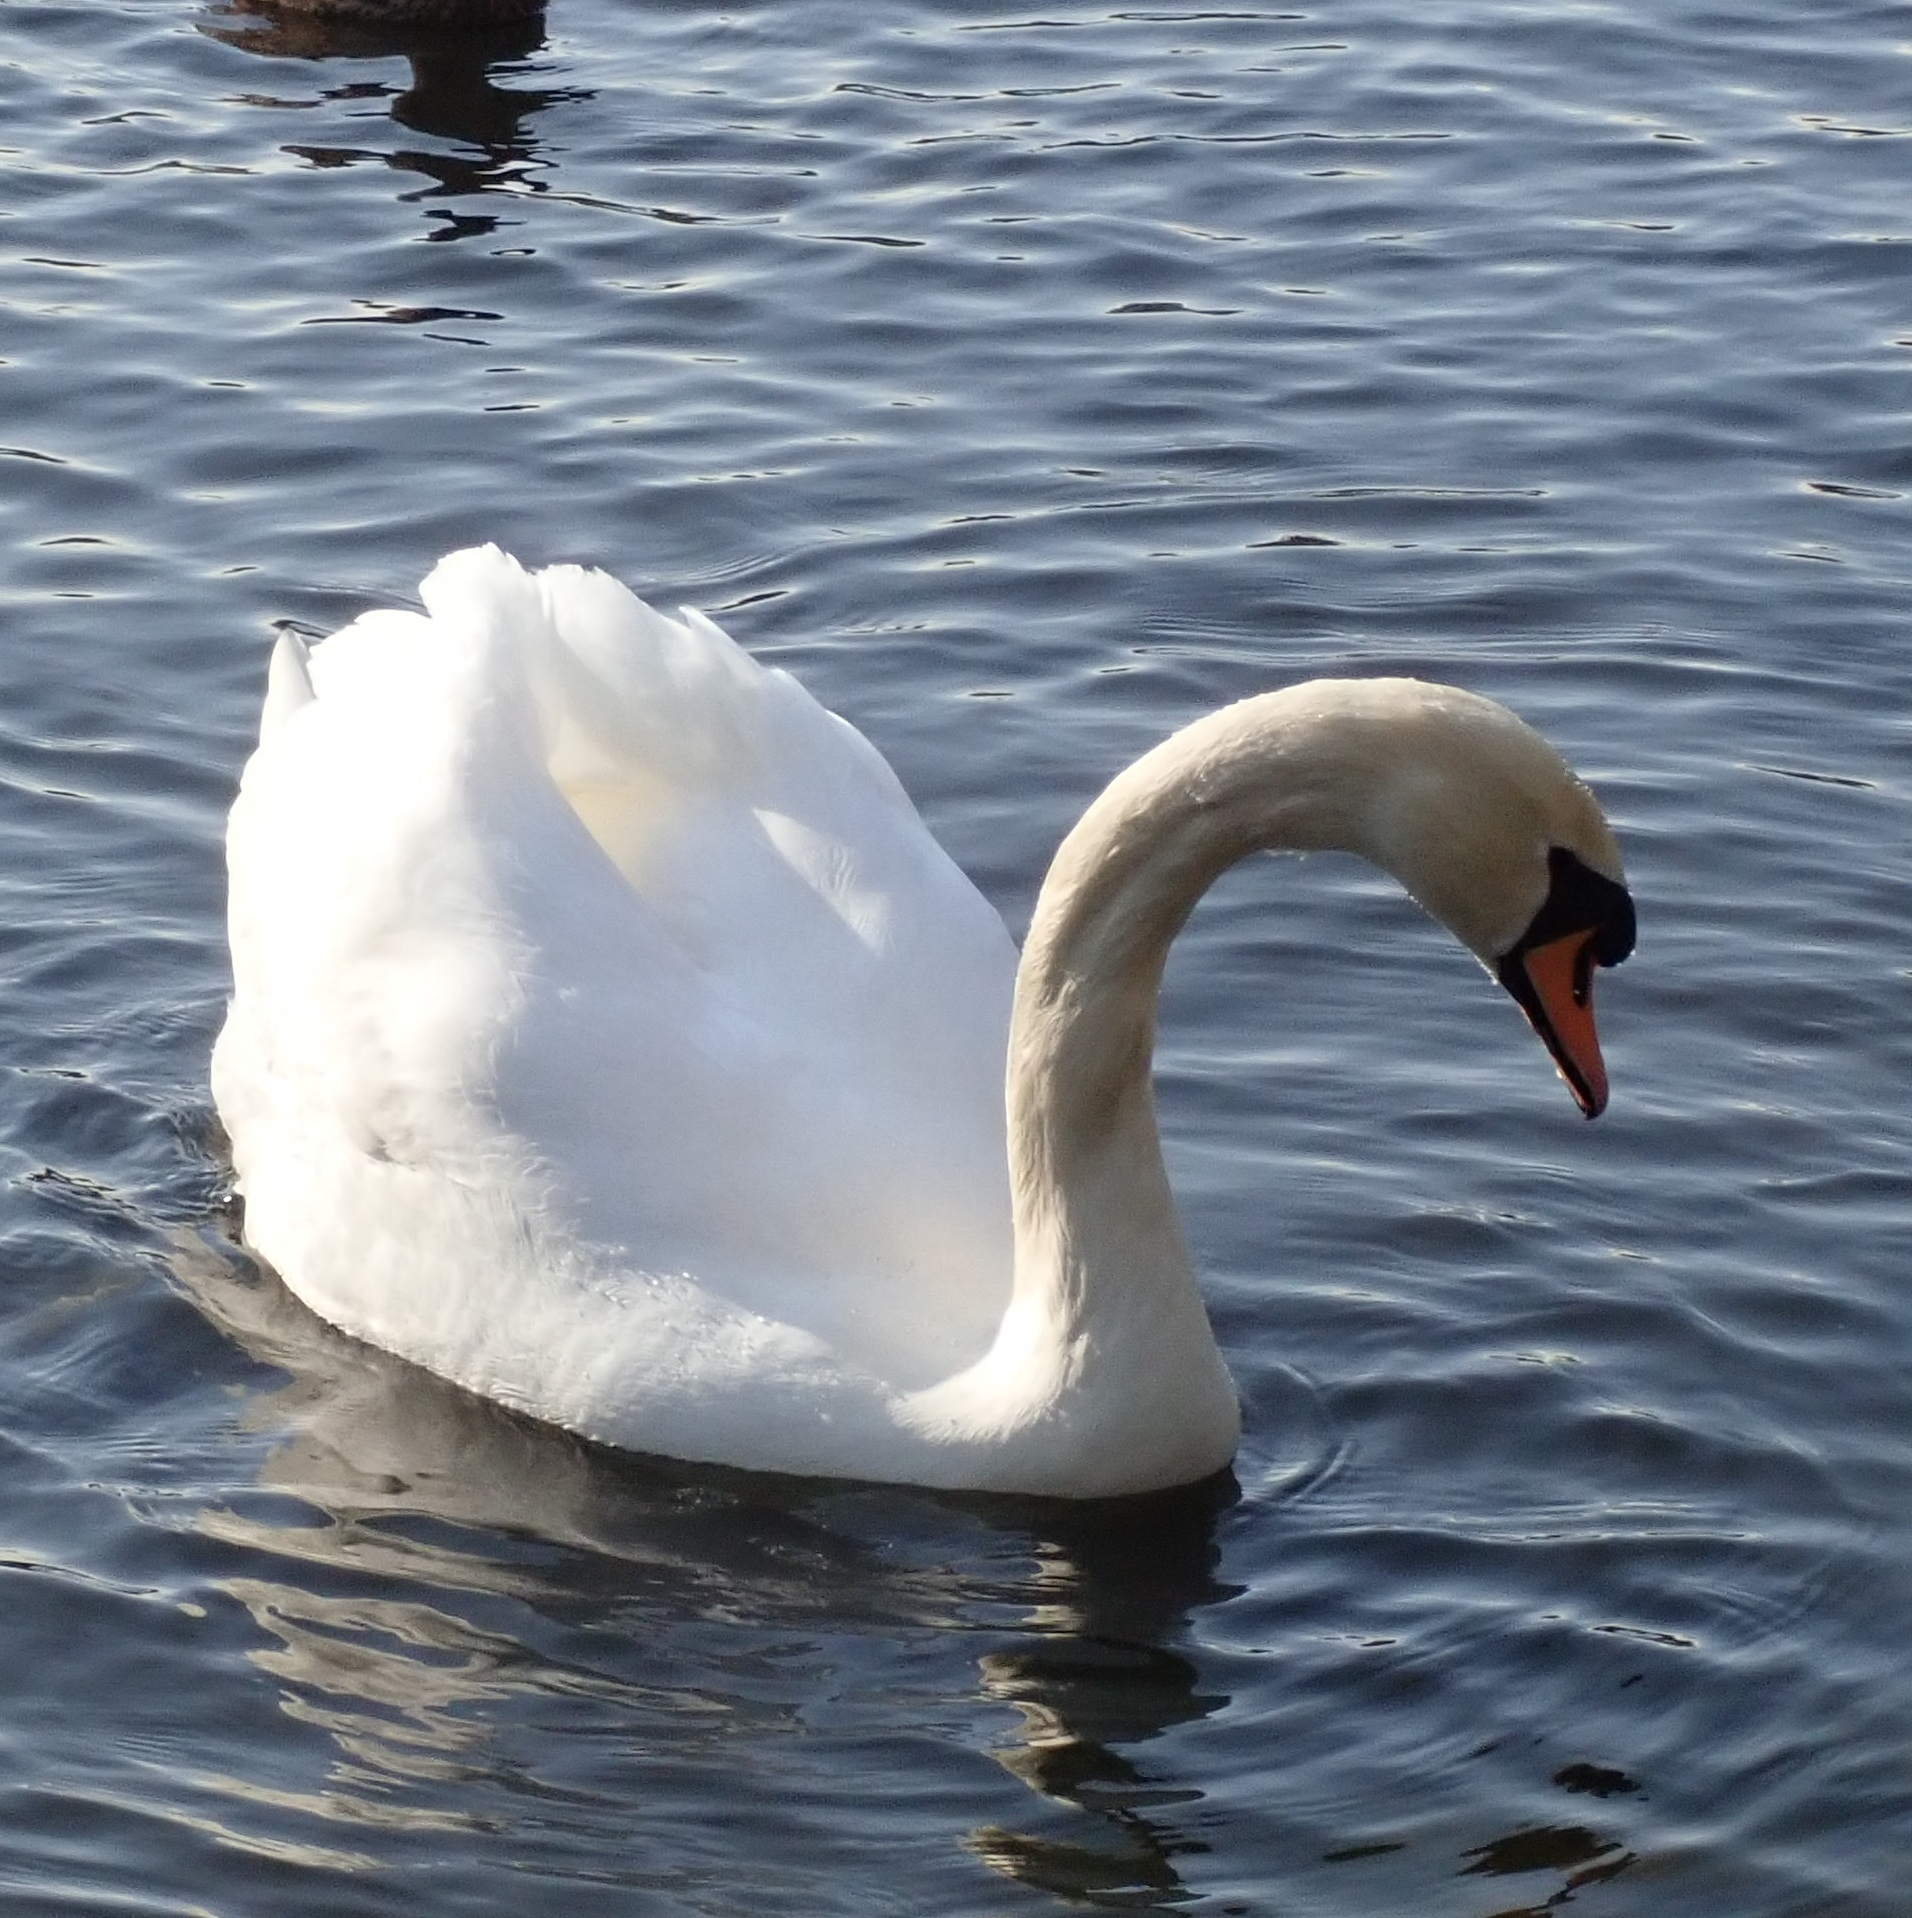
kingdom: Animalia
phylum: Chordata
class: Aves
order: Anseriformes
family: Anatidae
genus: Cygnus
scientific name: Cygnus olor
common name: Mute swan
